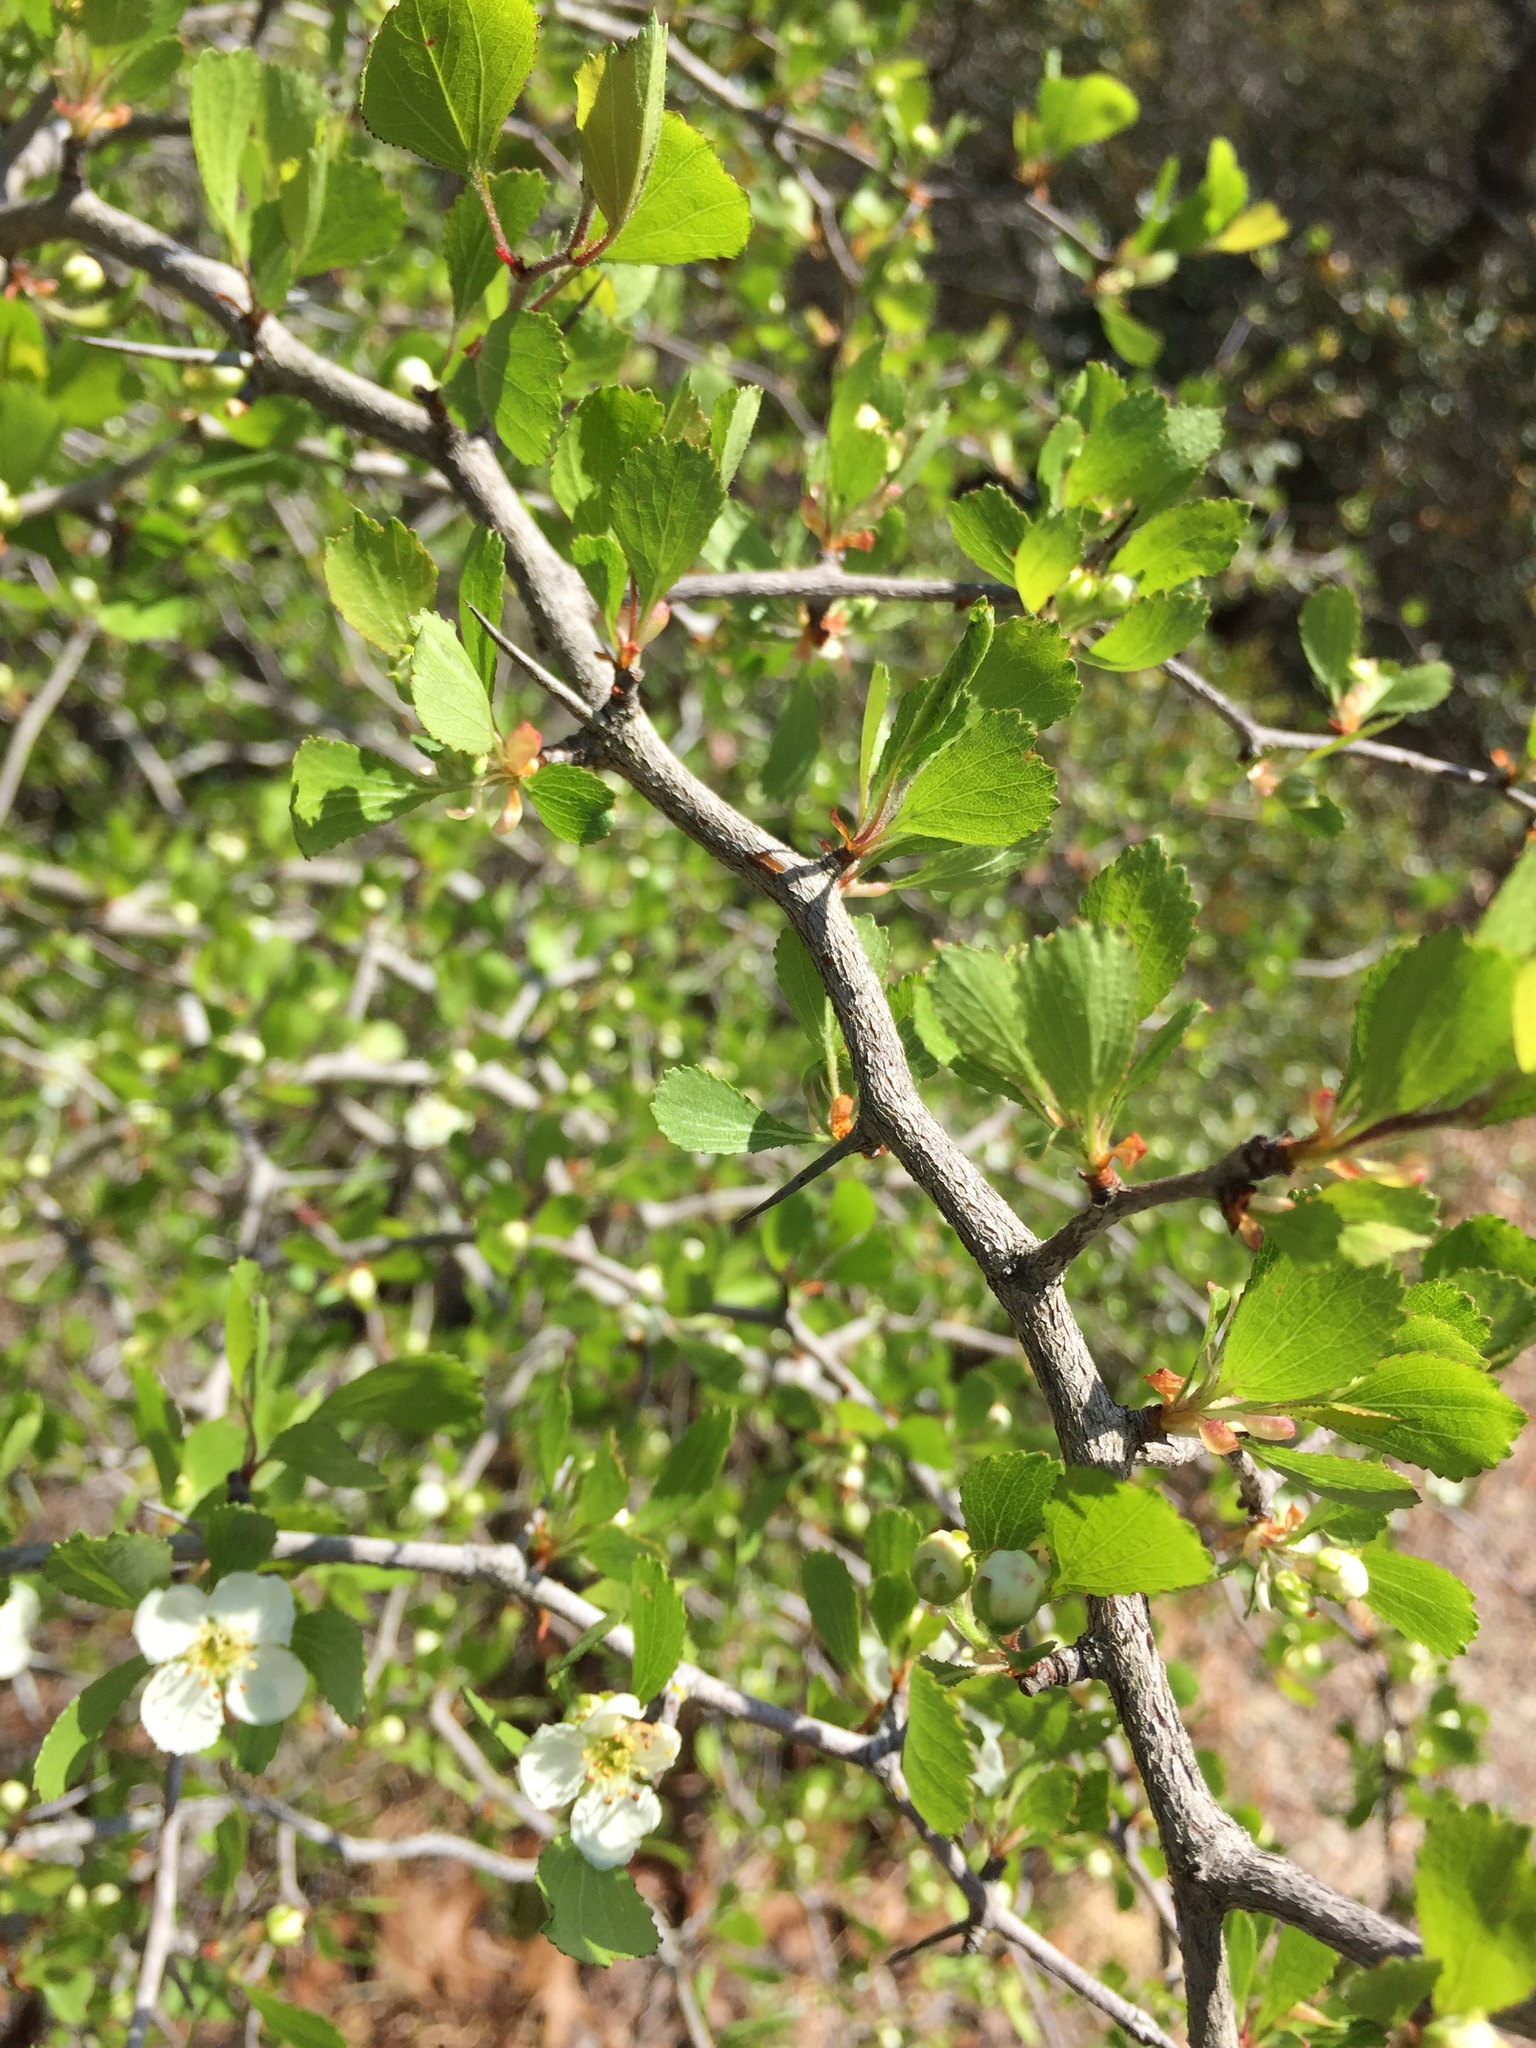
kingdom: Plantae
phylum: Tracheophyta
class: Magnoliopsida
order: Rosales
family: Rosaceae
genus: Crataegus
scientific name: Crataegus flava
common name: Yellow hawthorn
